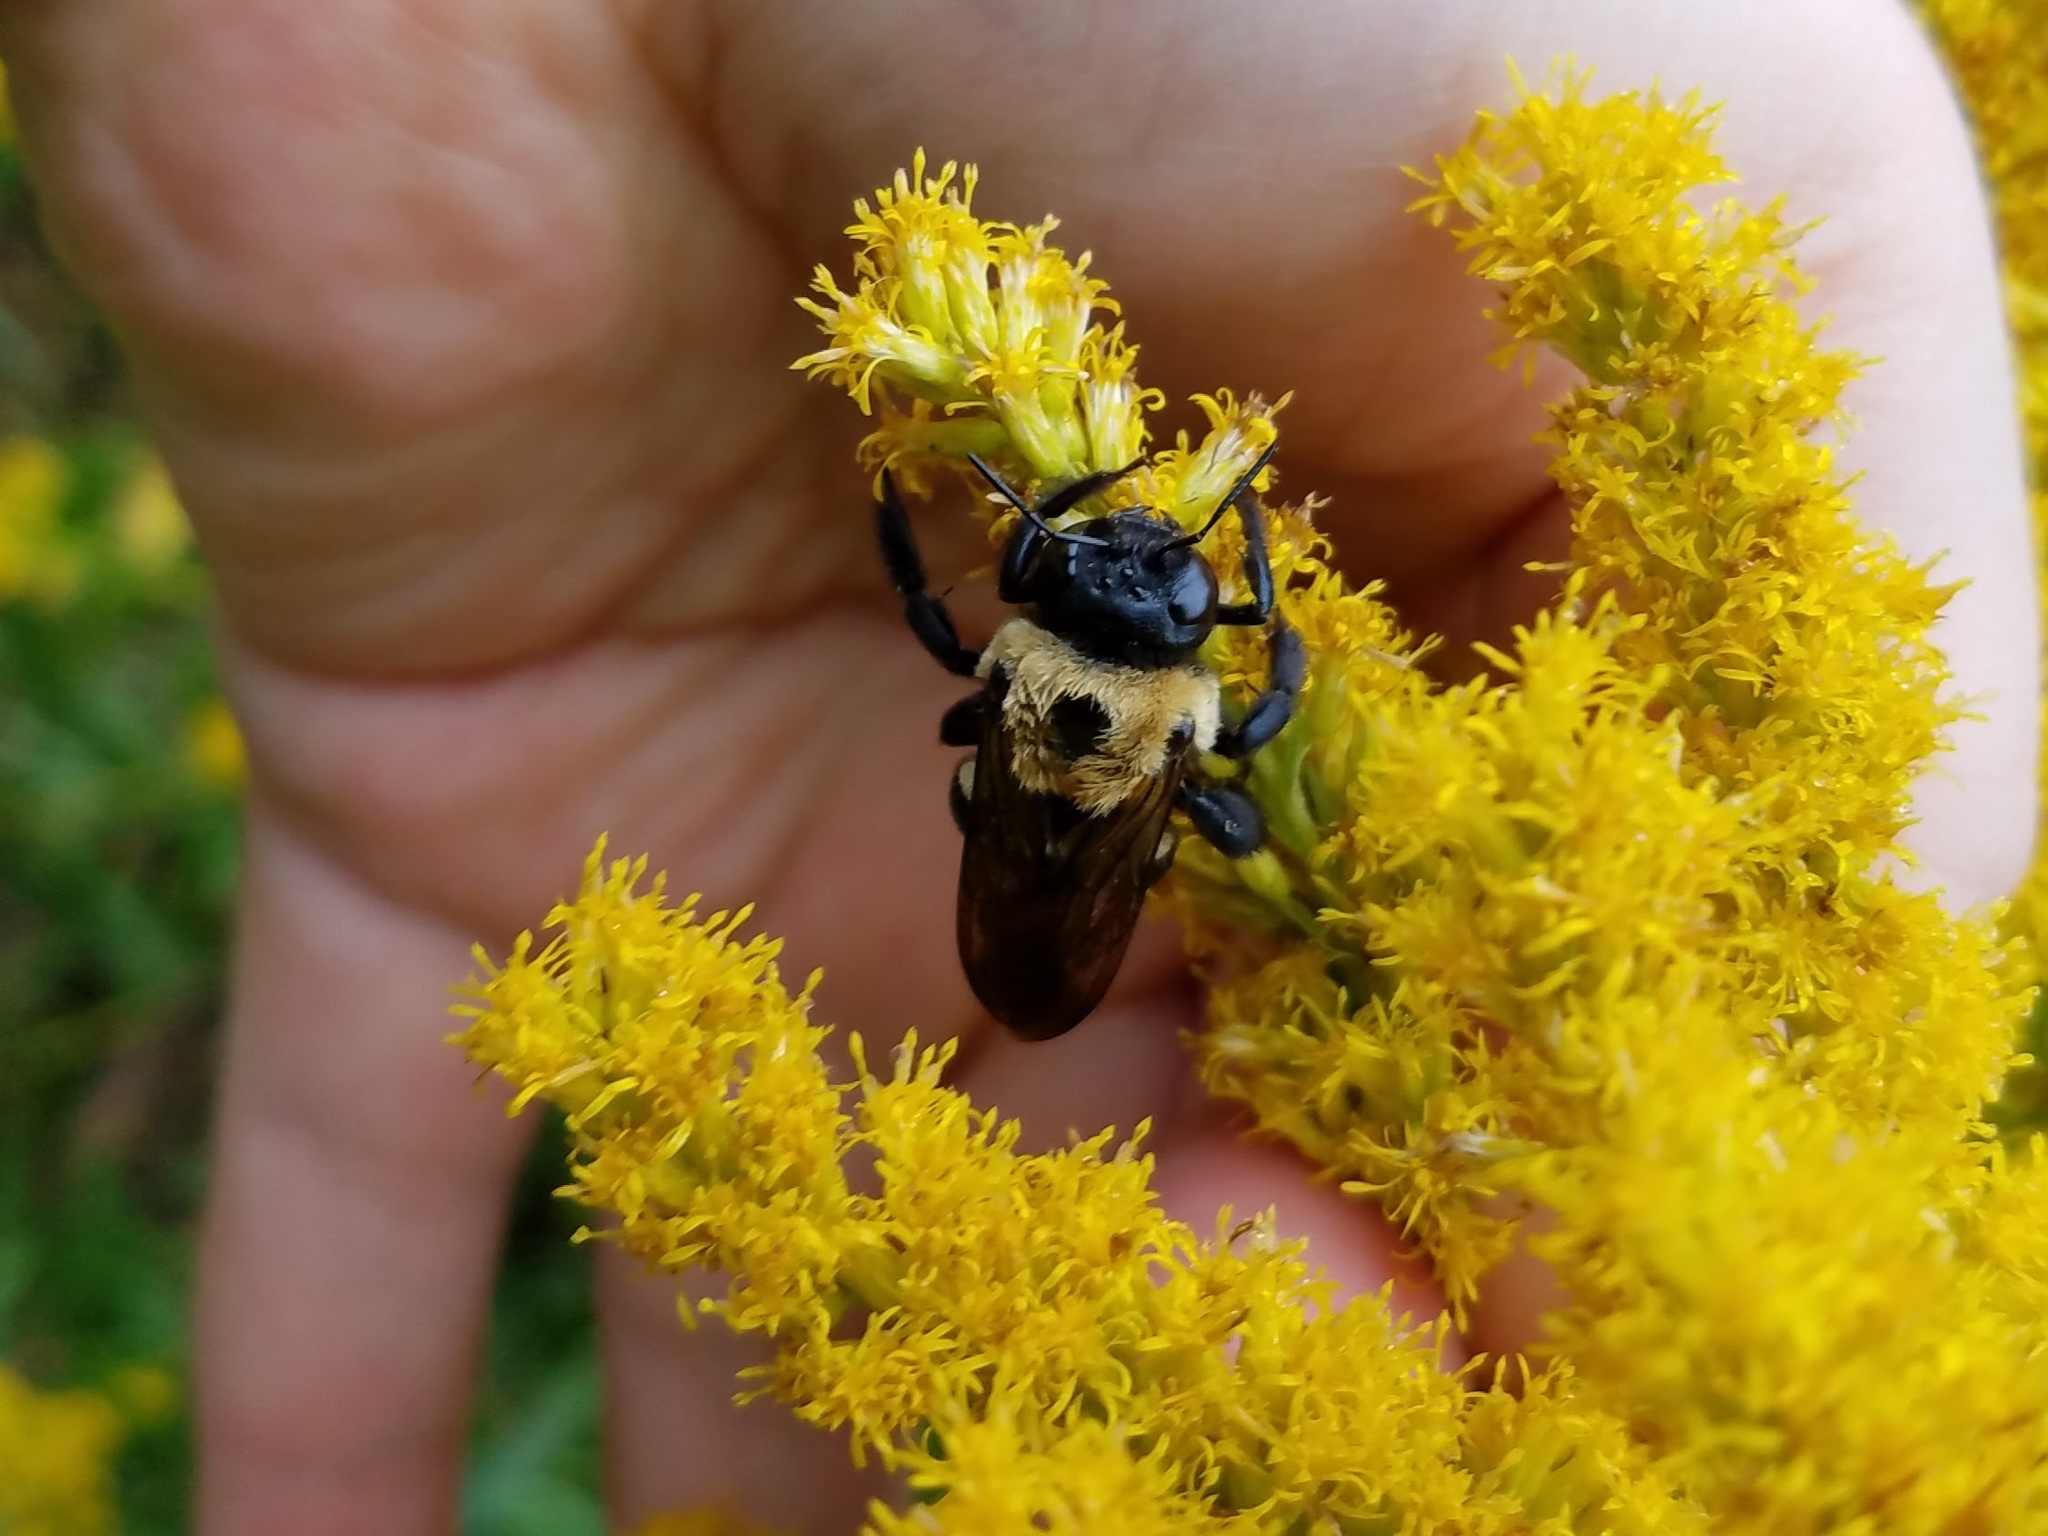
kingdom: Animalia
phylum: Arthropoda
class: Insecta
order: Hymenoptera
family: Apidae
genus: Xylocopa
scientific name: Xylocopa virginica
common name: Carpenter bee
